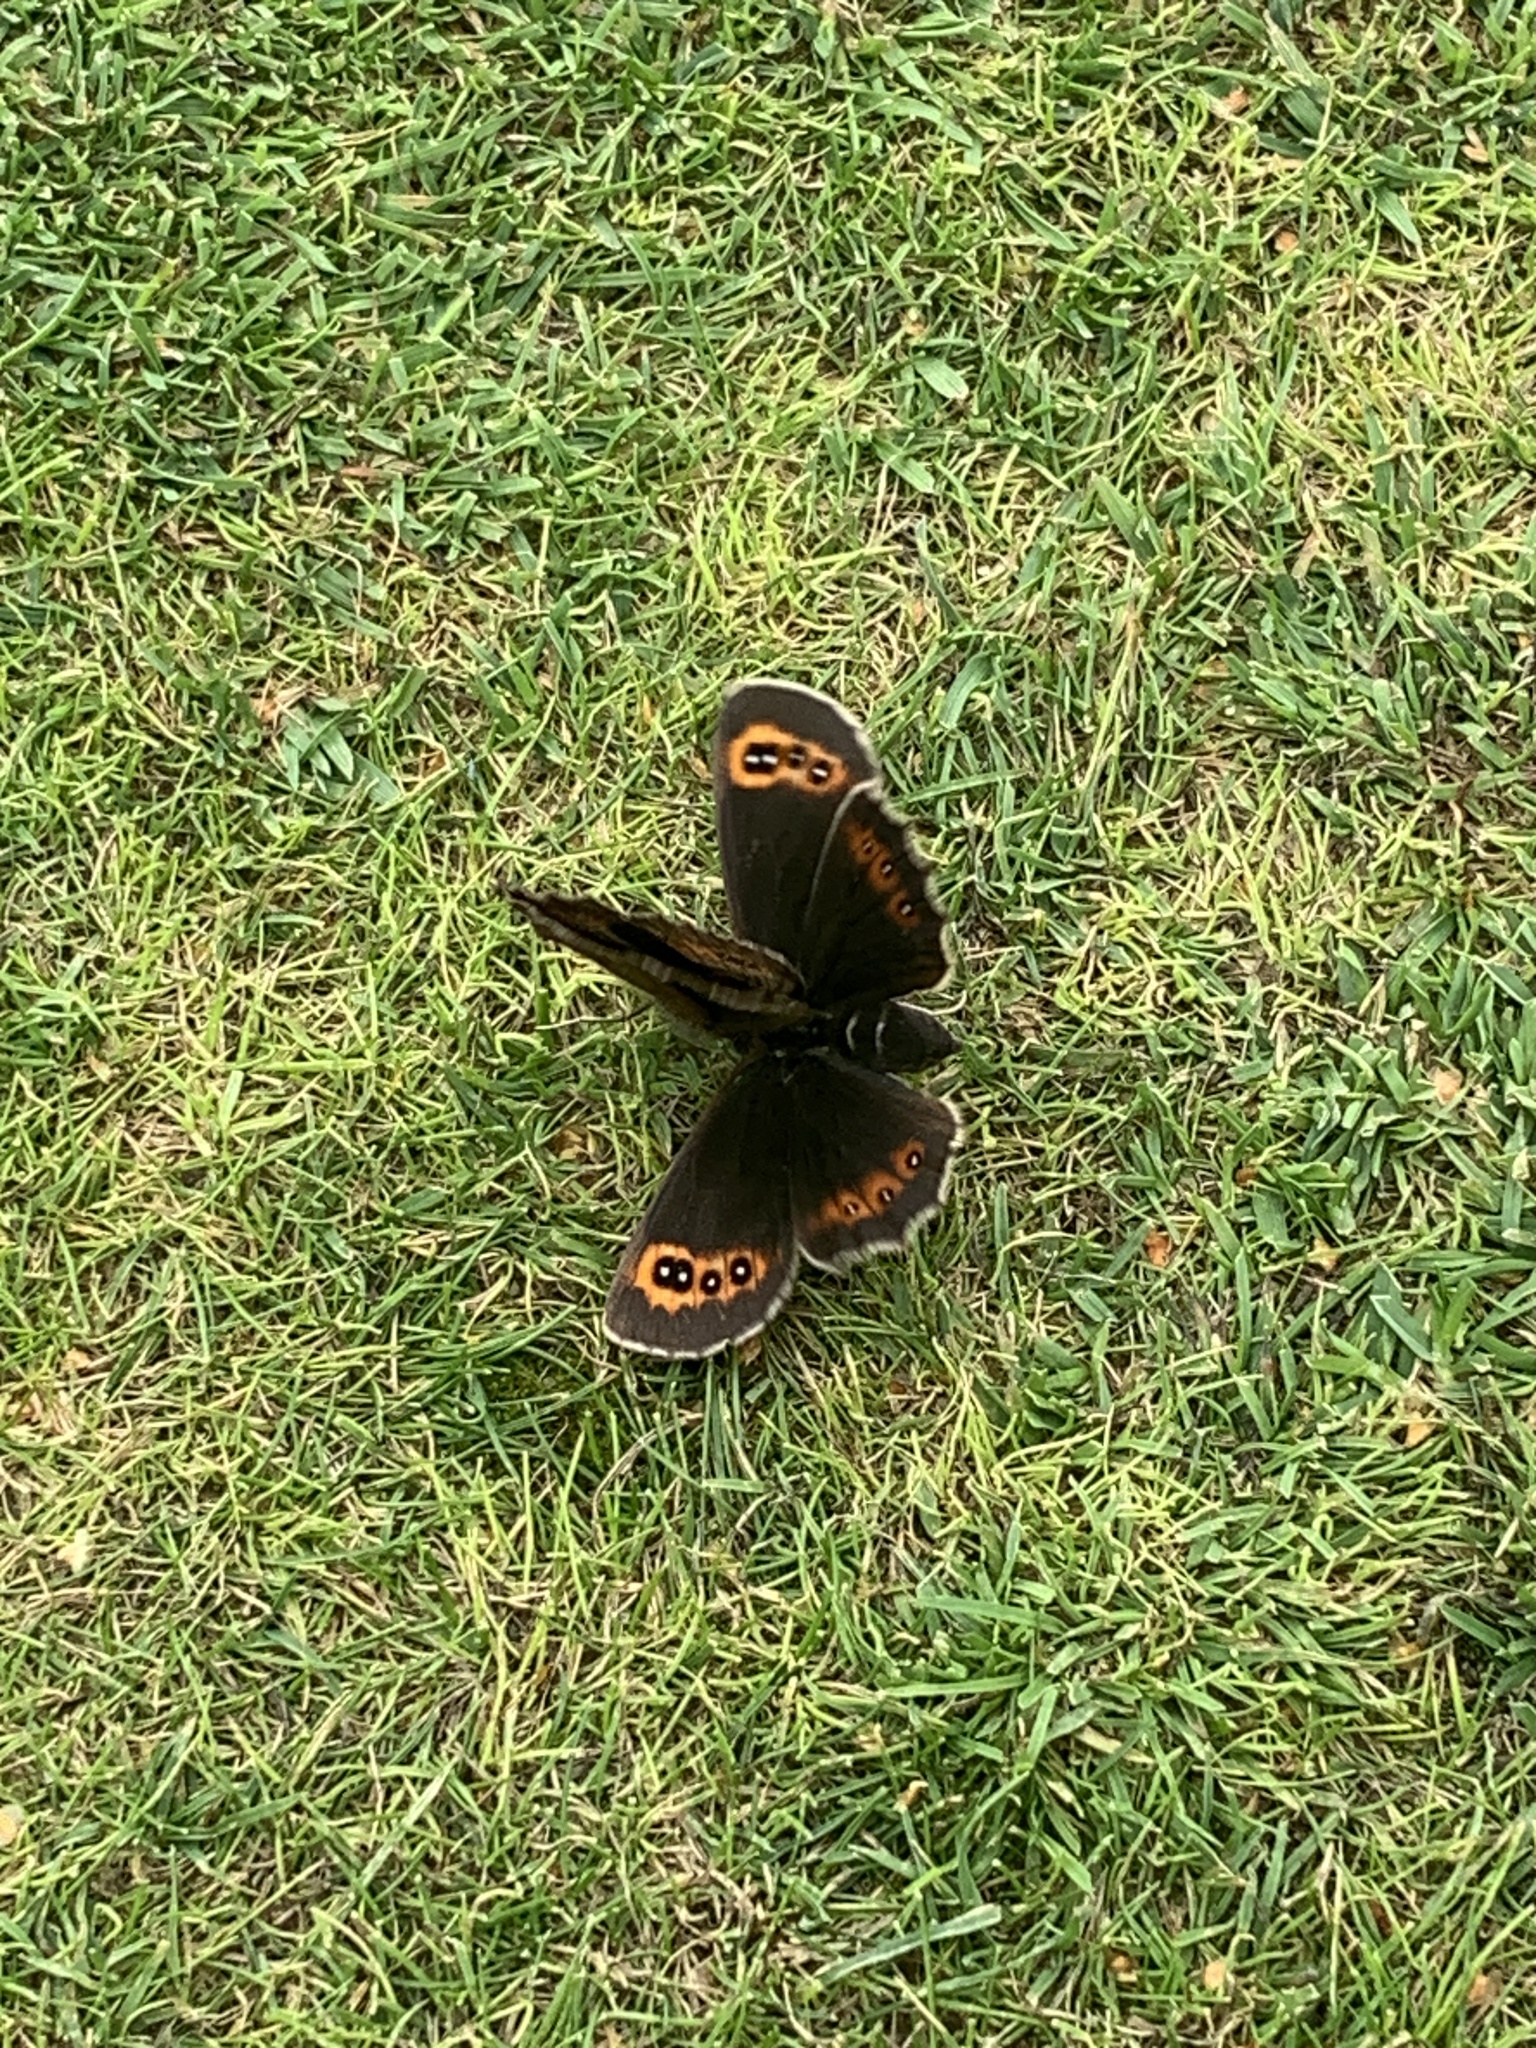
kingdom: Animalia
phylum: Arthropoda
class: Insecta
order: Lepidoptera
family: Nymphalidae
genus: Erebia
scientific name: Erebia aethiops
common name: Scotch argus
